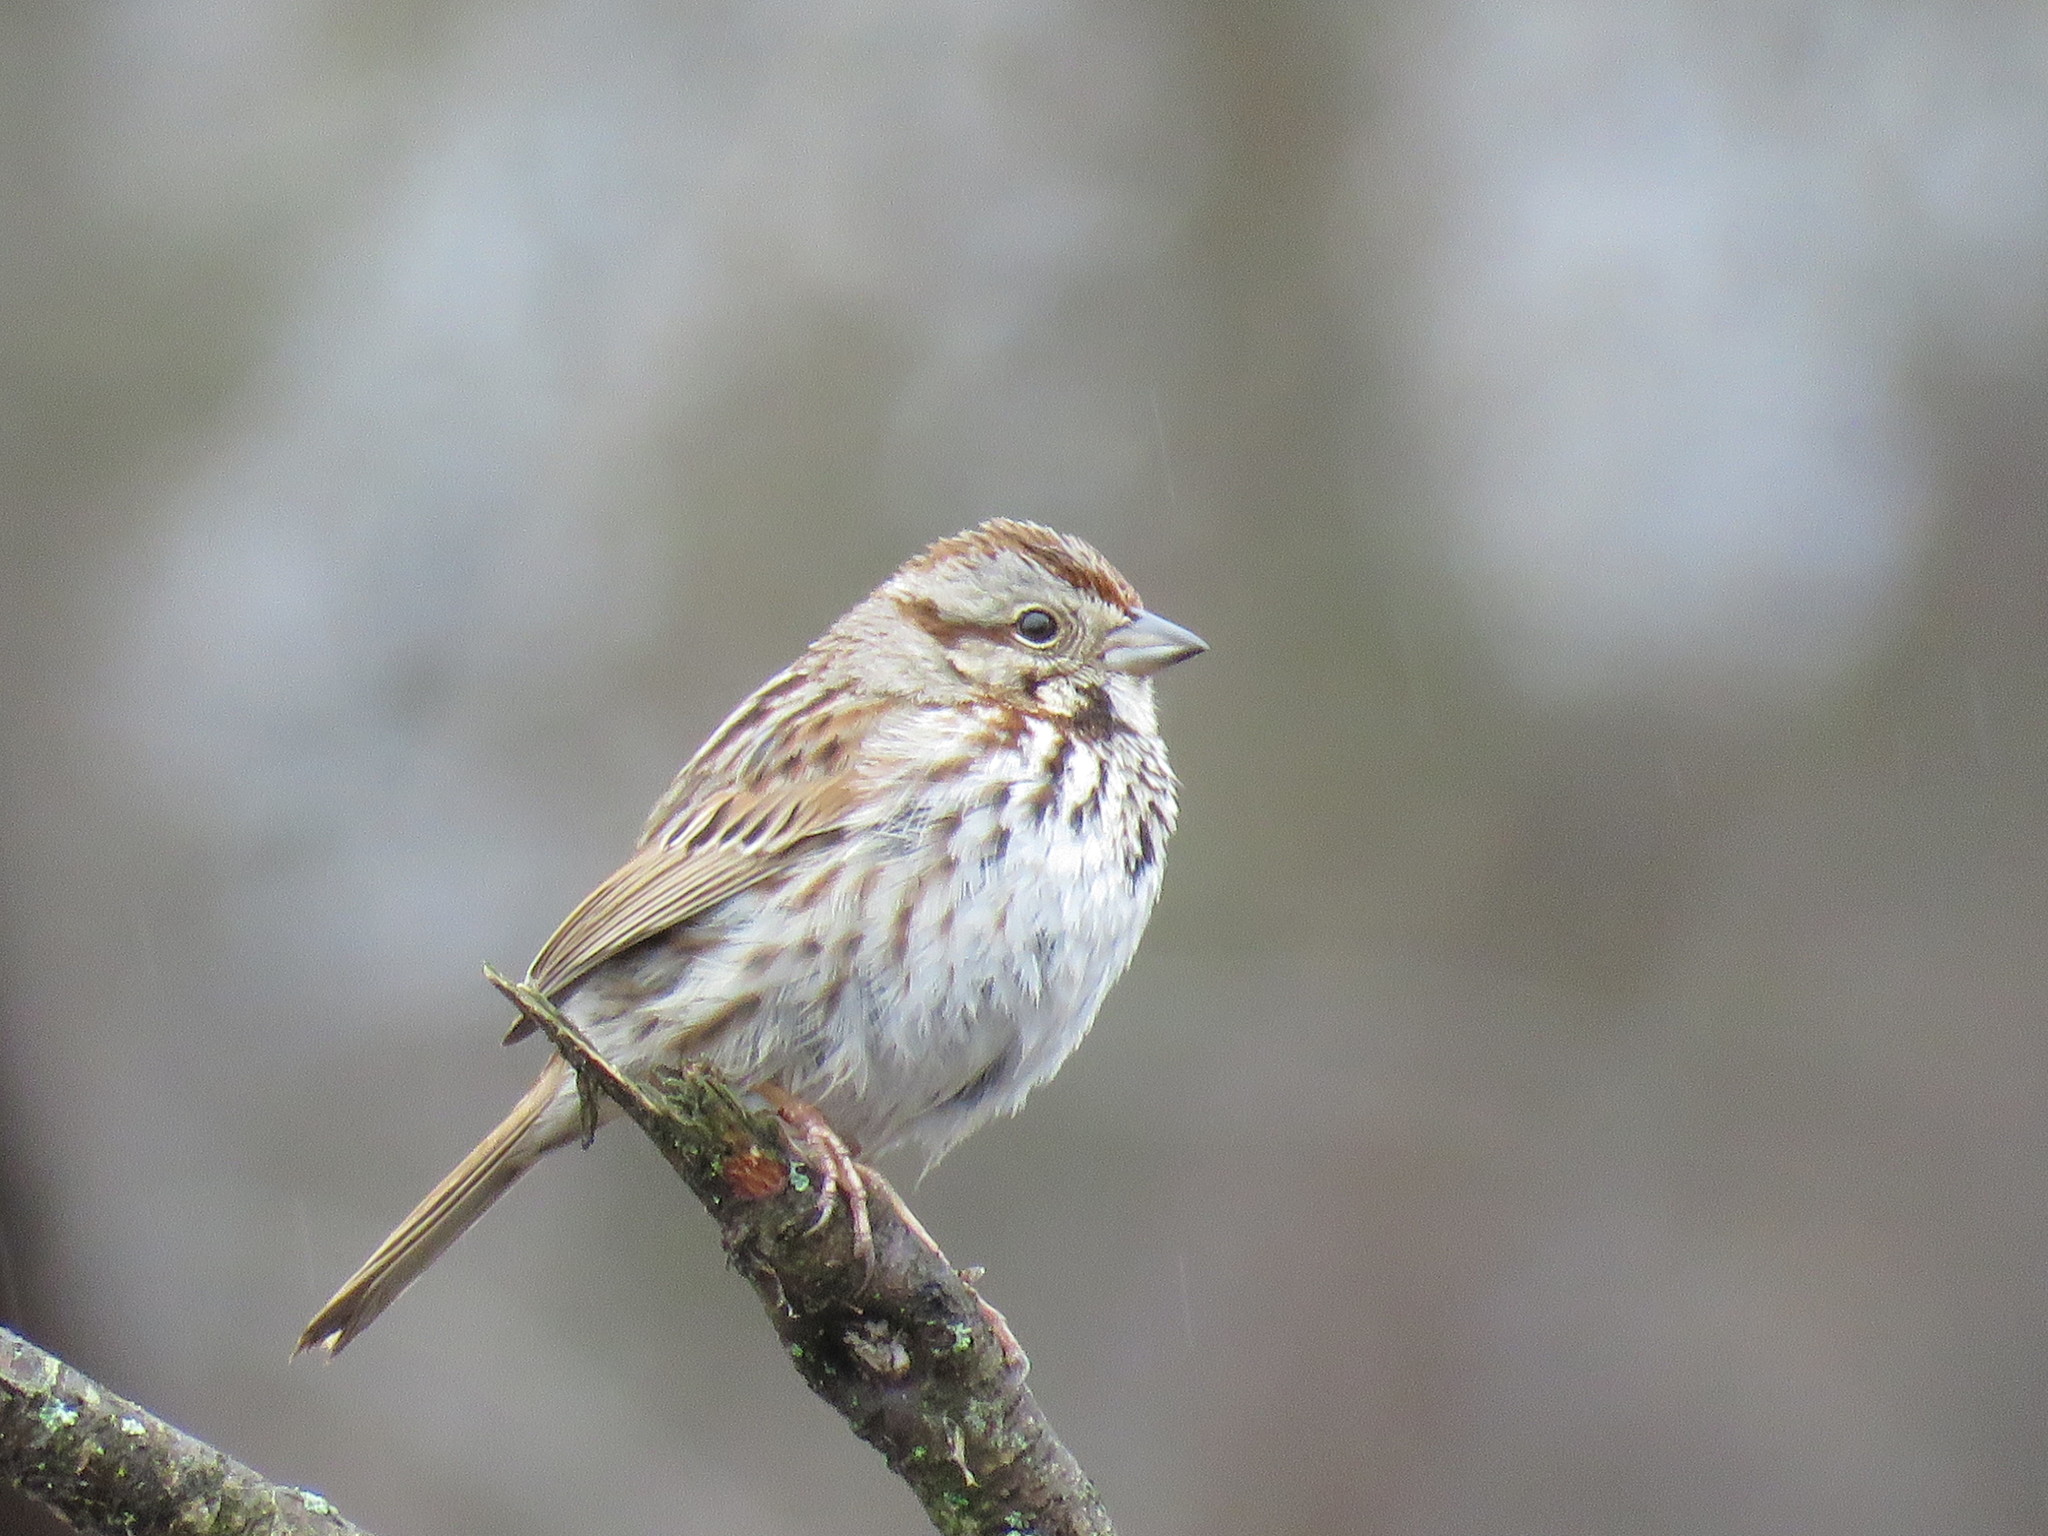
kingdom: Animalia
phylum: Chordata
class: Aves
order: Passeriformes
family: Passerellidae
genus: Melospiza
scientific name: Melospiza melodia
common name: Song sparrow
